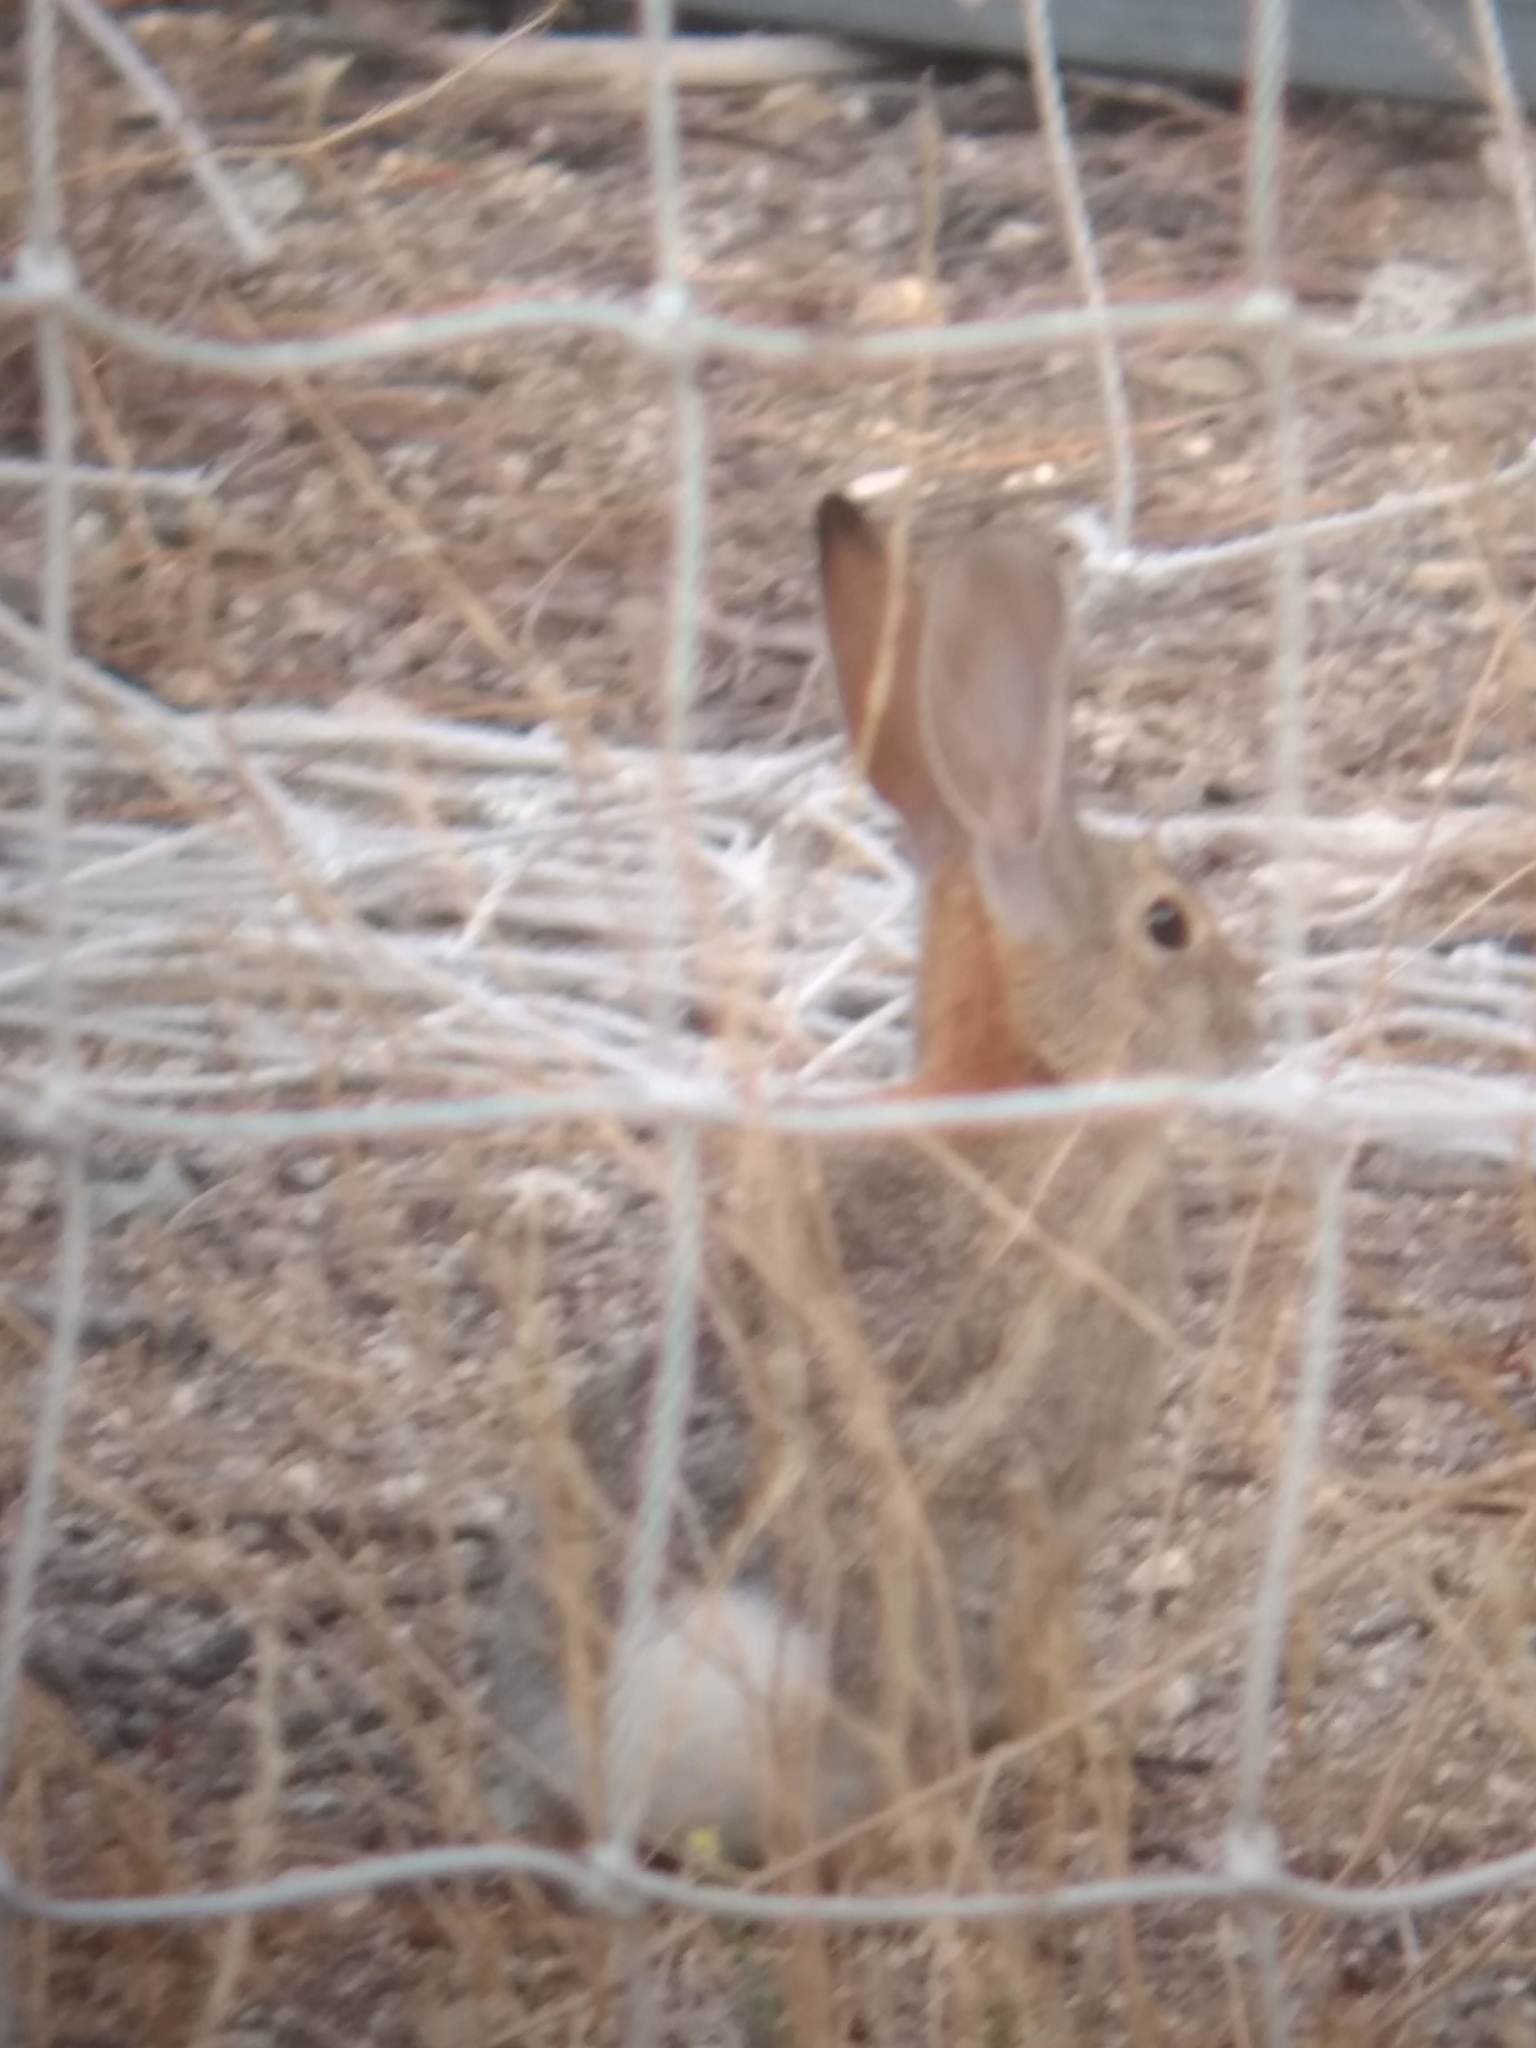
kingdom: Animalia
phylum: Chordata
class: Mammalia
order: Lagomorpha
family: Leporidae
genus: Sylvilagus
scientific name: Sylvilagus audubonii
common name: Desert cottontail
